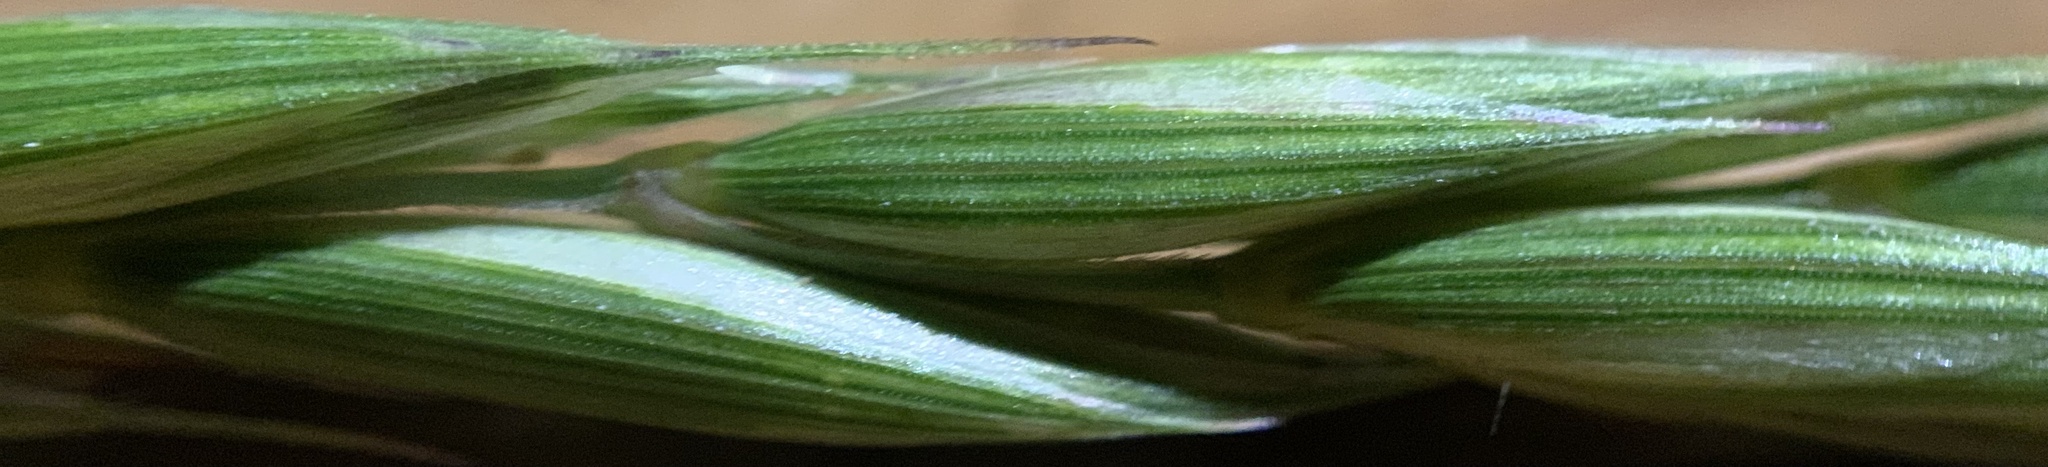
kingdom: Plantae
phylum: Tracheophyta
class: Liliopsida
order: Poales
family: Poaceae
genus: Elymus
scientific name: Elymus violaceus
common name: Arctic wheatgrass
